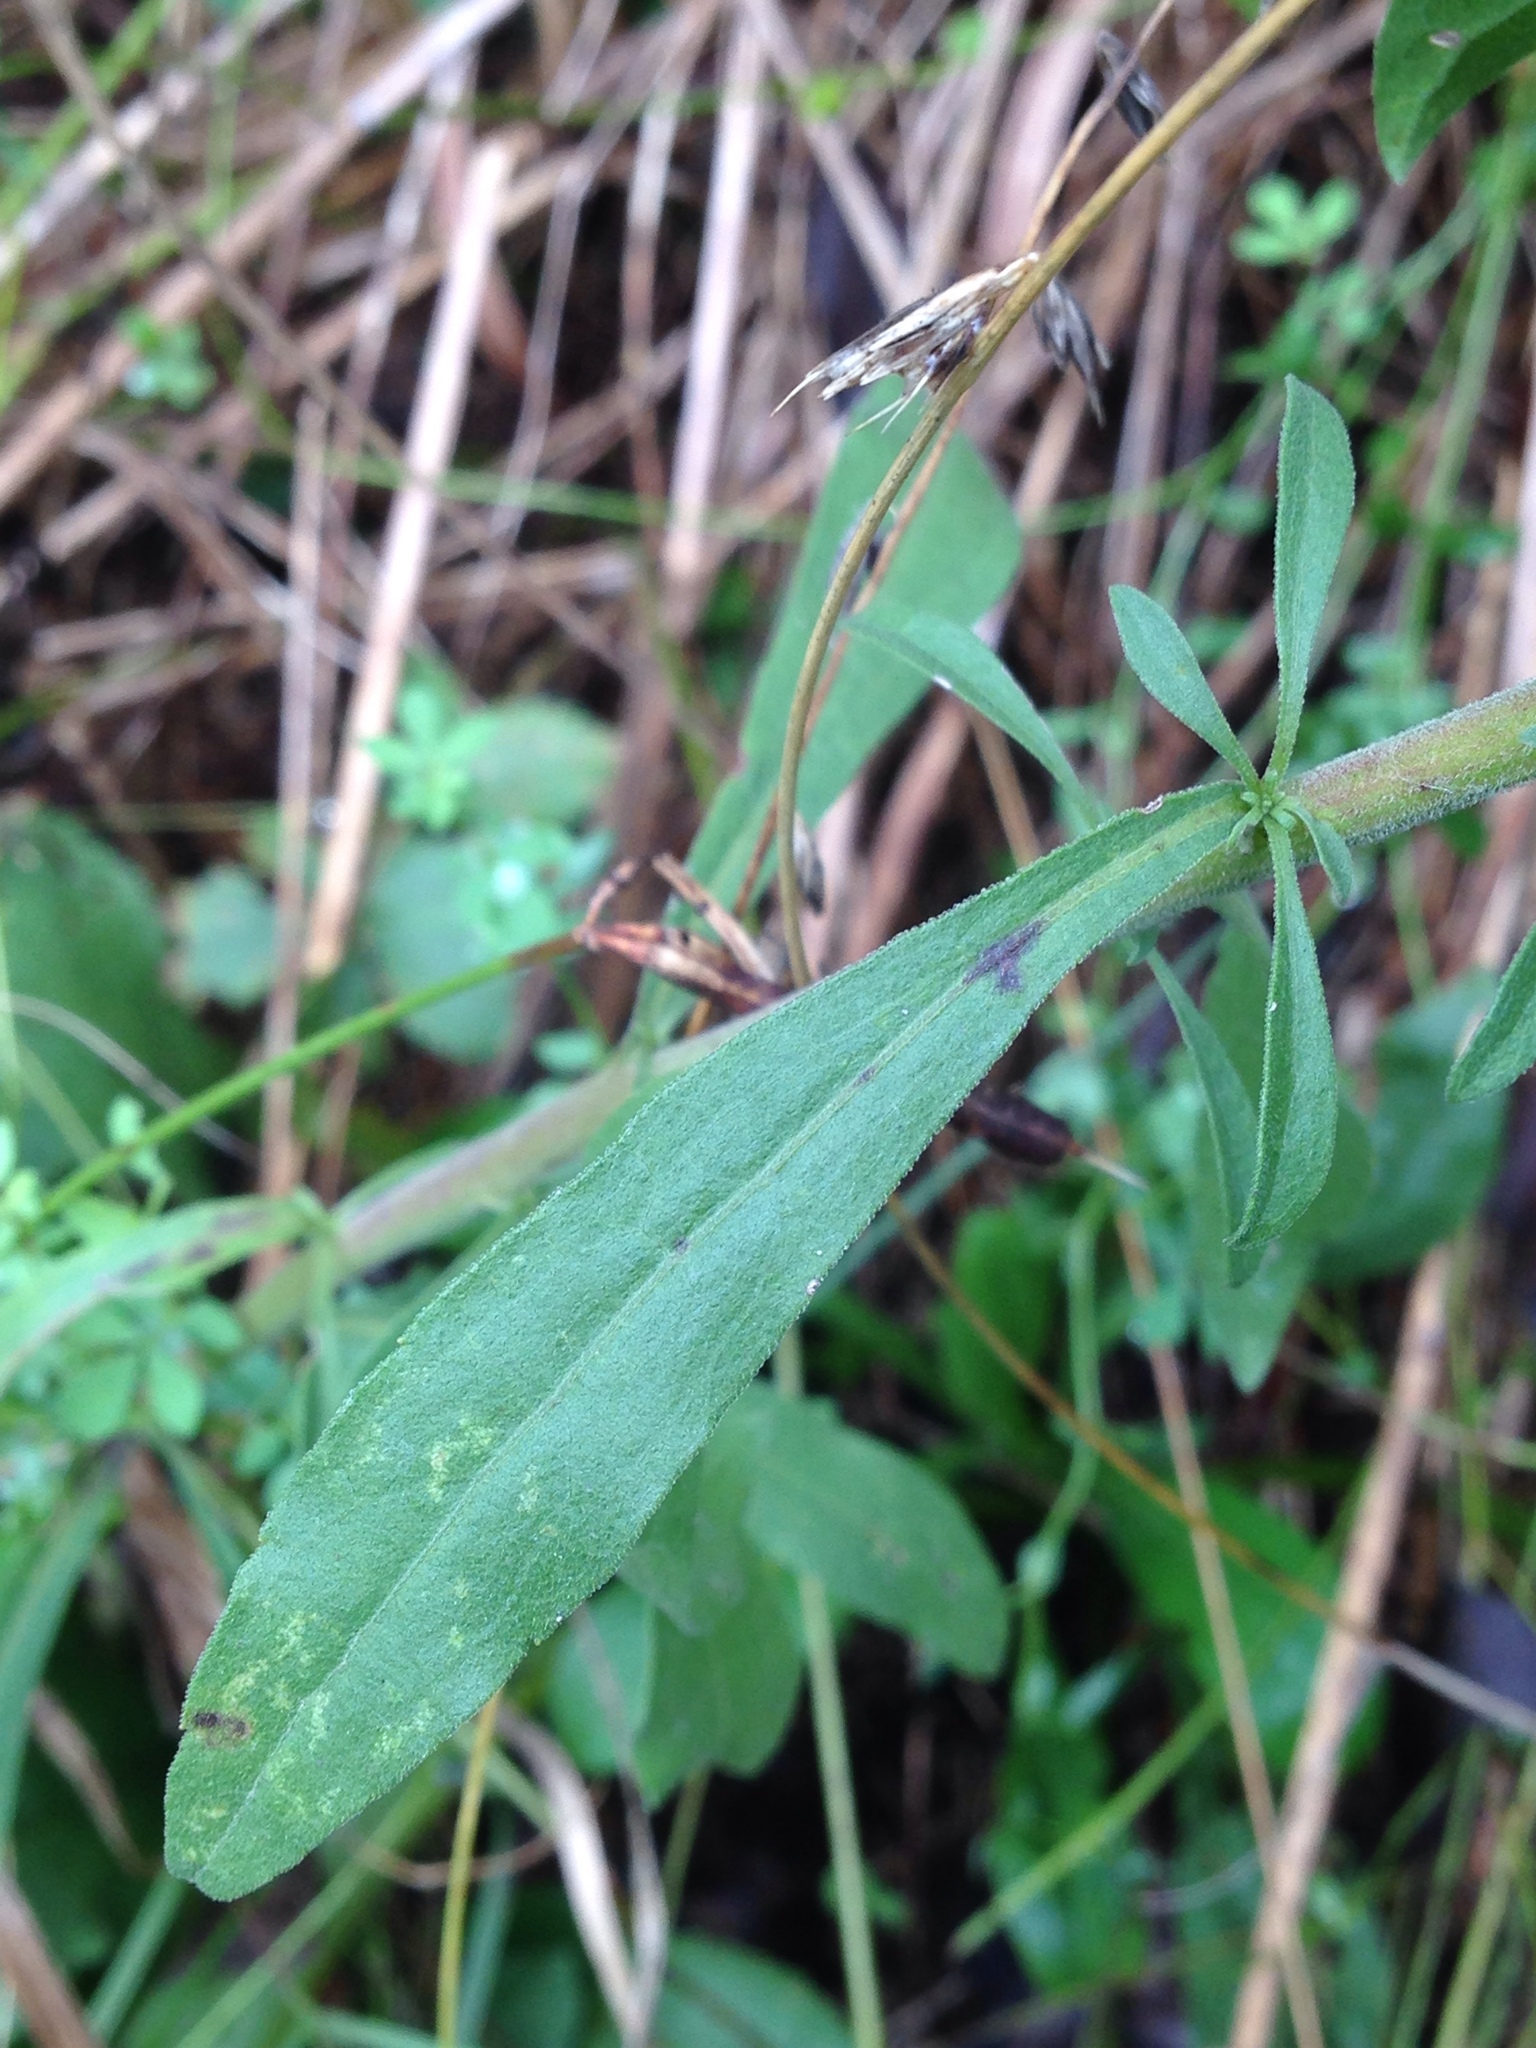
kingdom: Plantae
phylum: Tracheophyta
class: Magnoliopsida
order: Asterales
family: Asteraceae
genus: Solidago
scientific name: Solidago nemoralis
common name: Grey goldenrod
